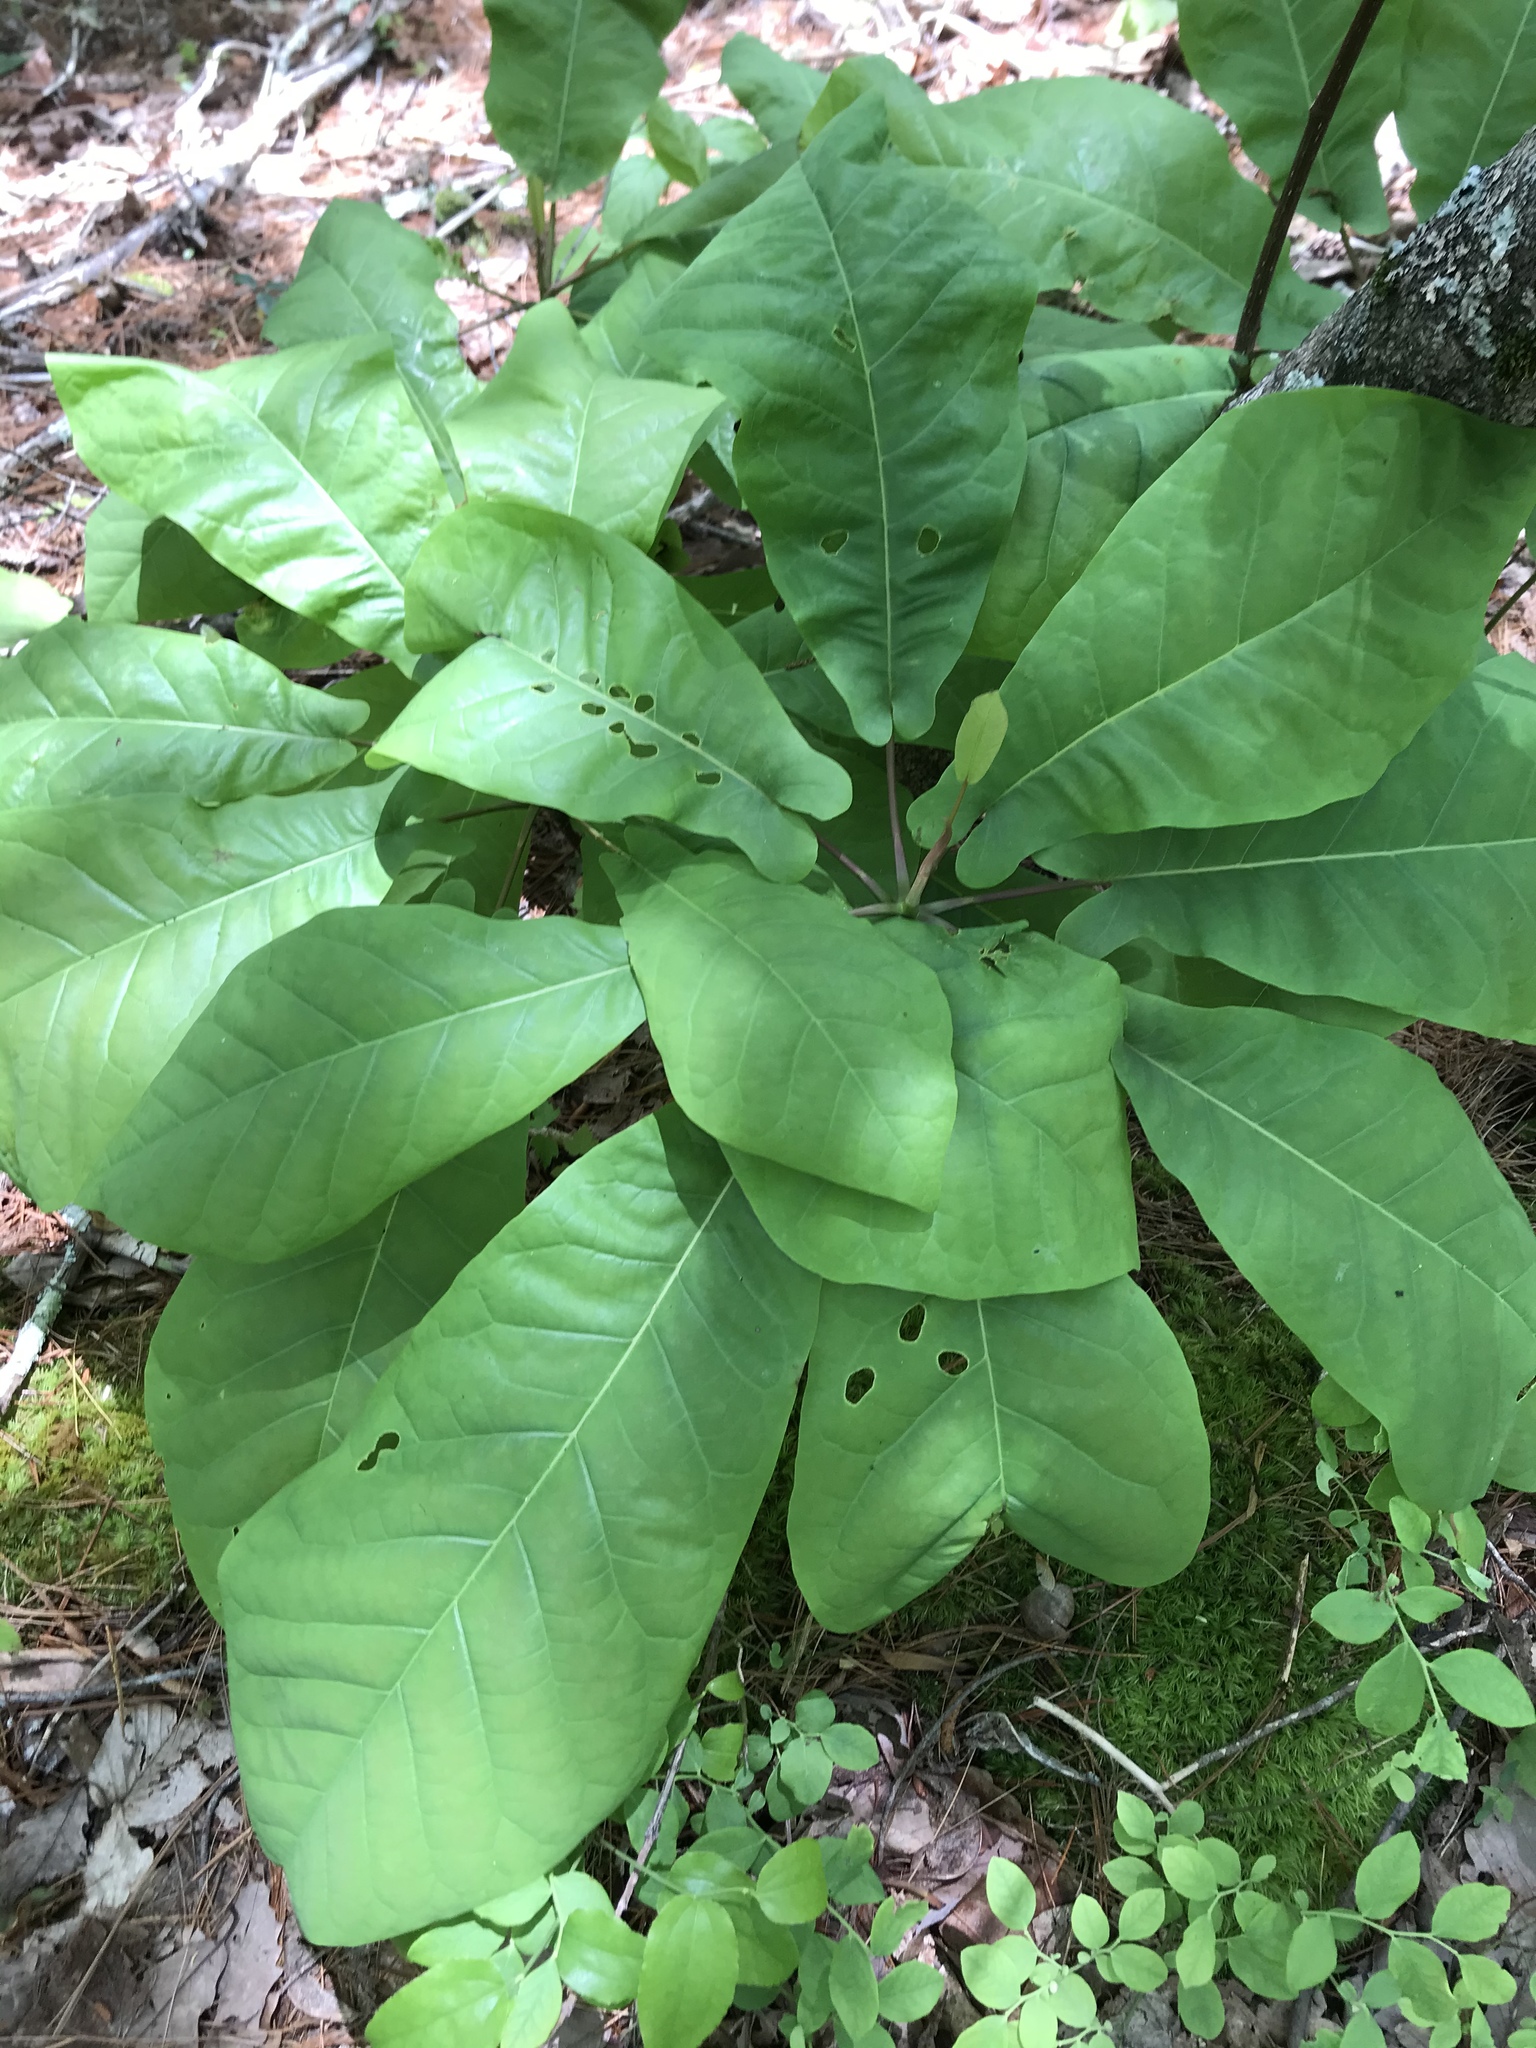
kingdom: Plantae
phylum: Tracheophyta
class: Magnoliopsida
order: Magnoliales
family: Magnoliaceae
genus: Magnolia
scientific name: Magnolia fraseri
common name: Fraser's magnolia
